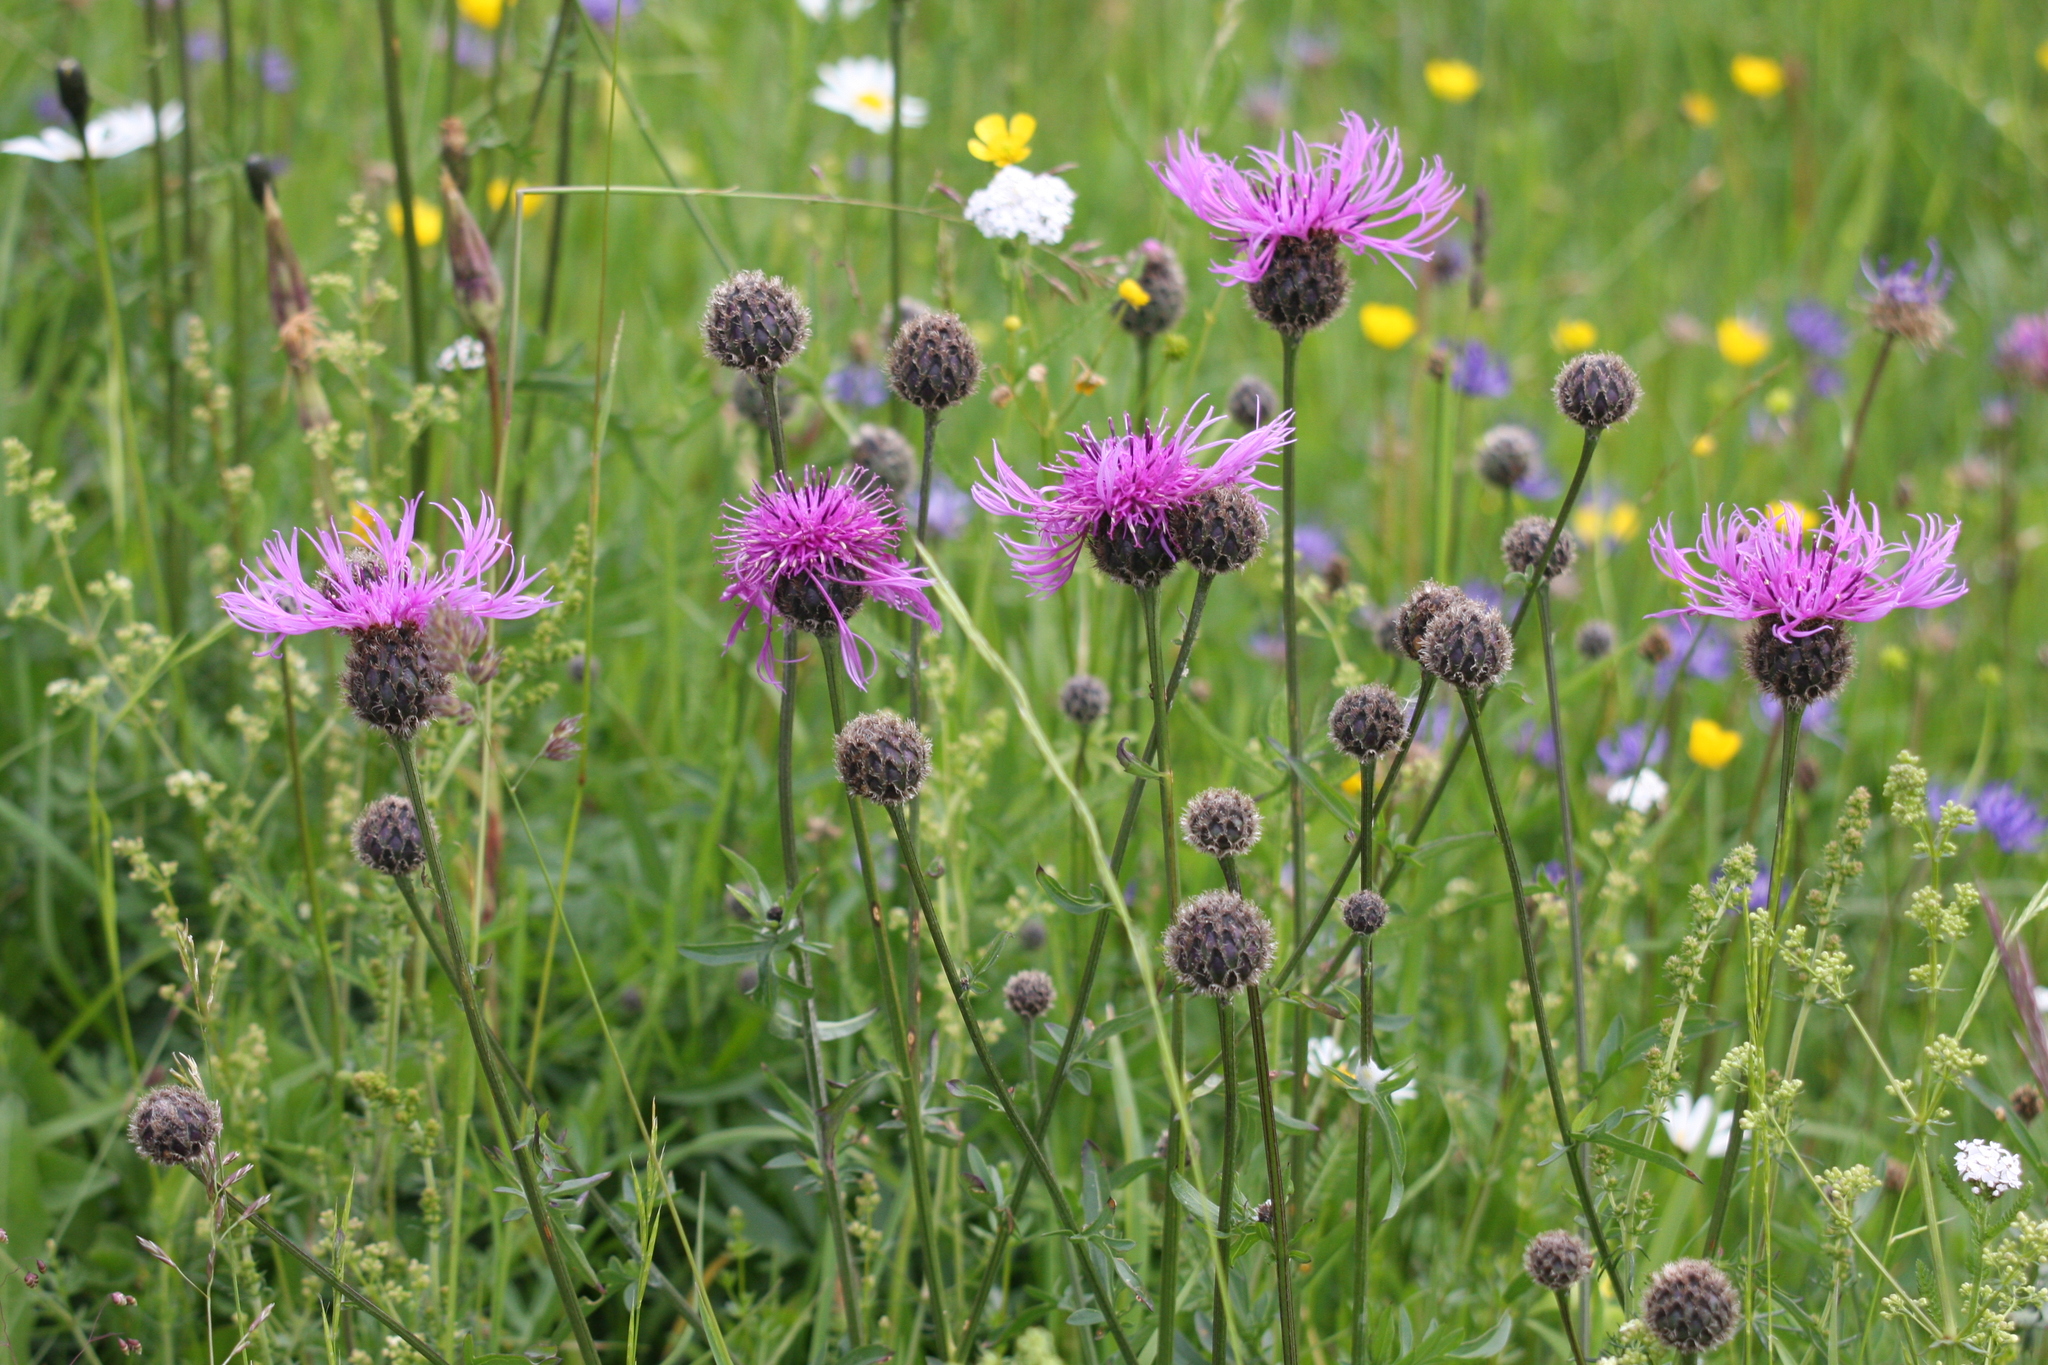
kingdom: Plantae
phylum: Tracheophyta
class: Magnoliopsida
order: Asterales
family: Asteraceae
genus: Centaurea
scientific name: Centaurea scabiosa
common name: Greater knapweed
